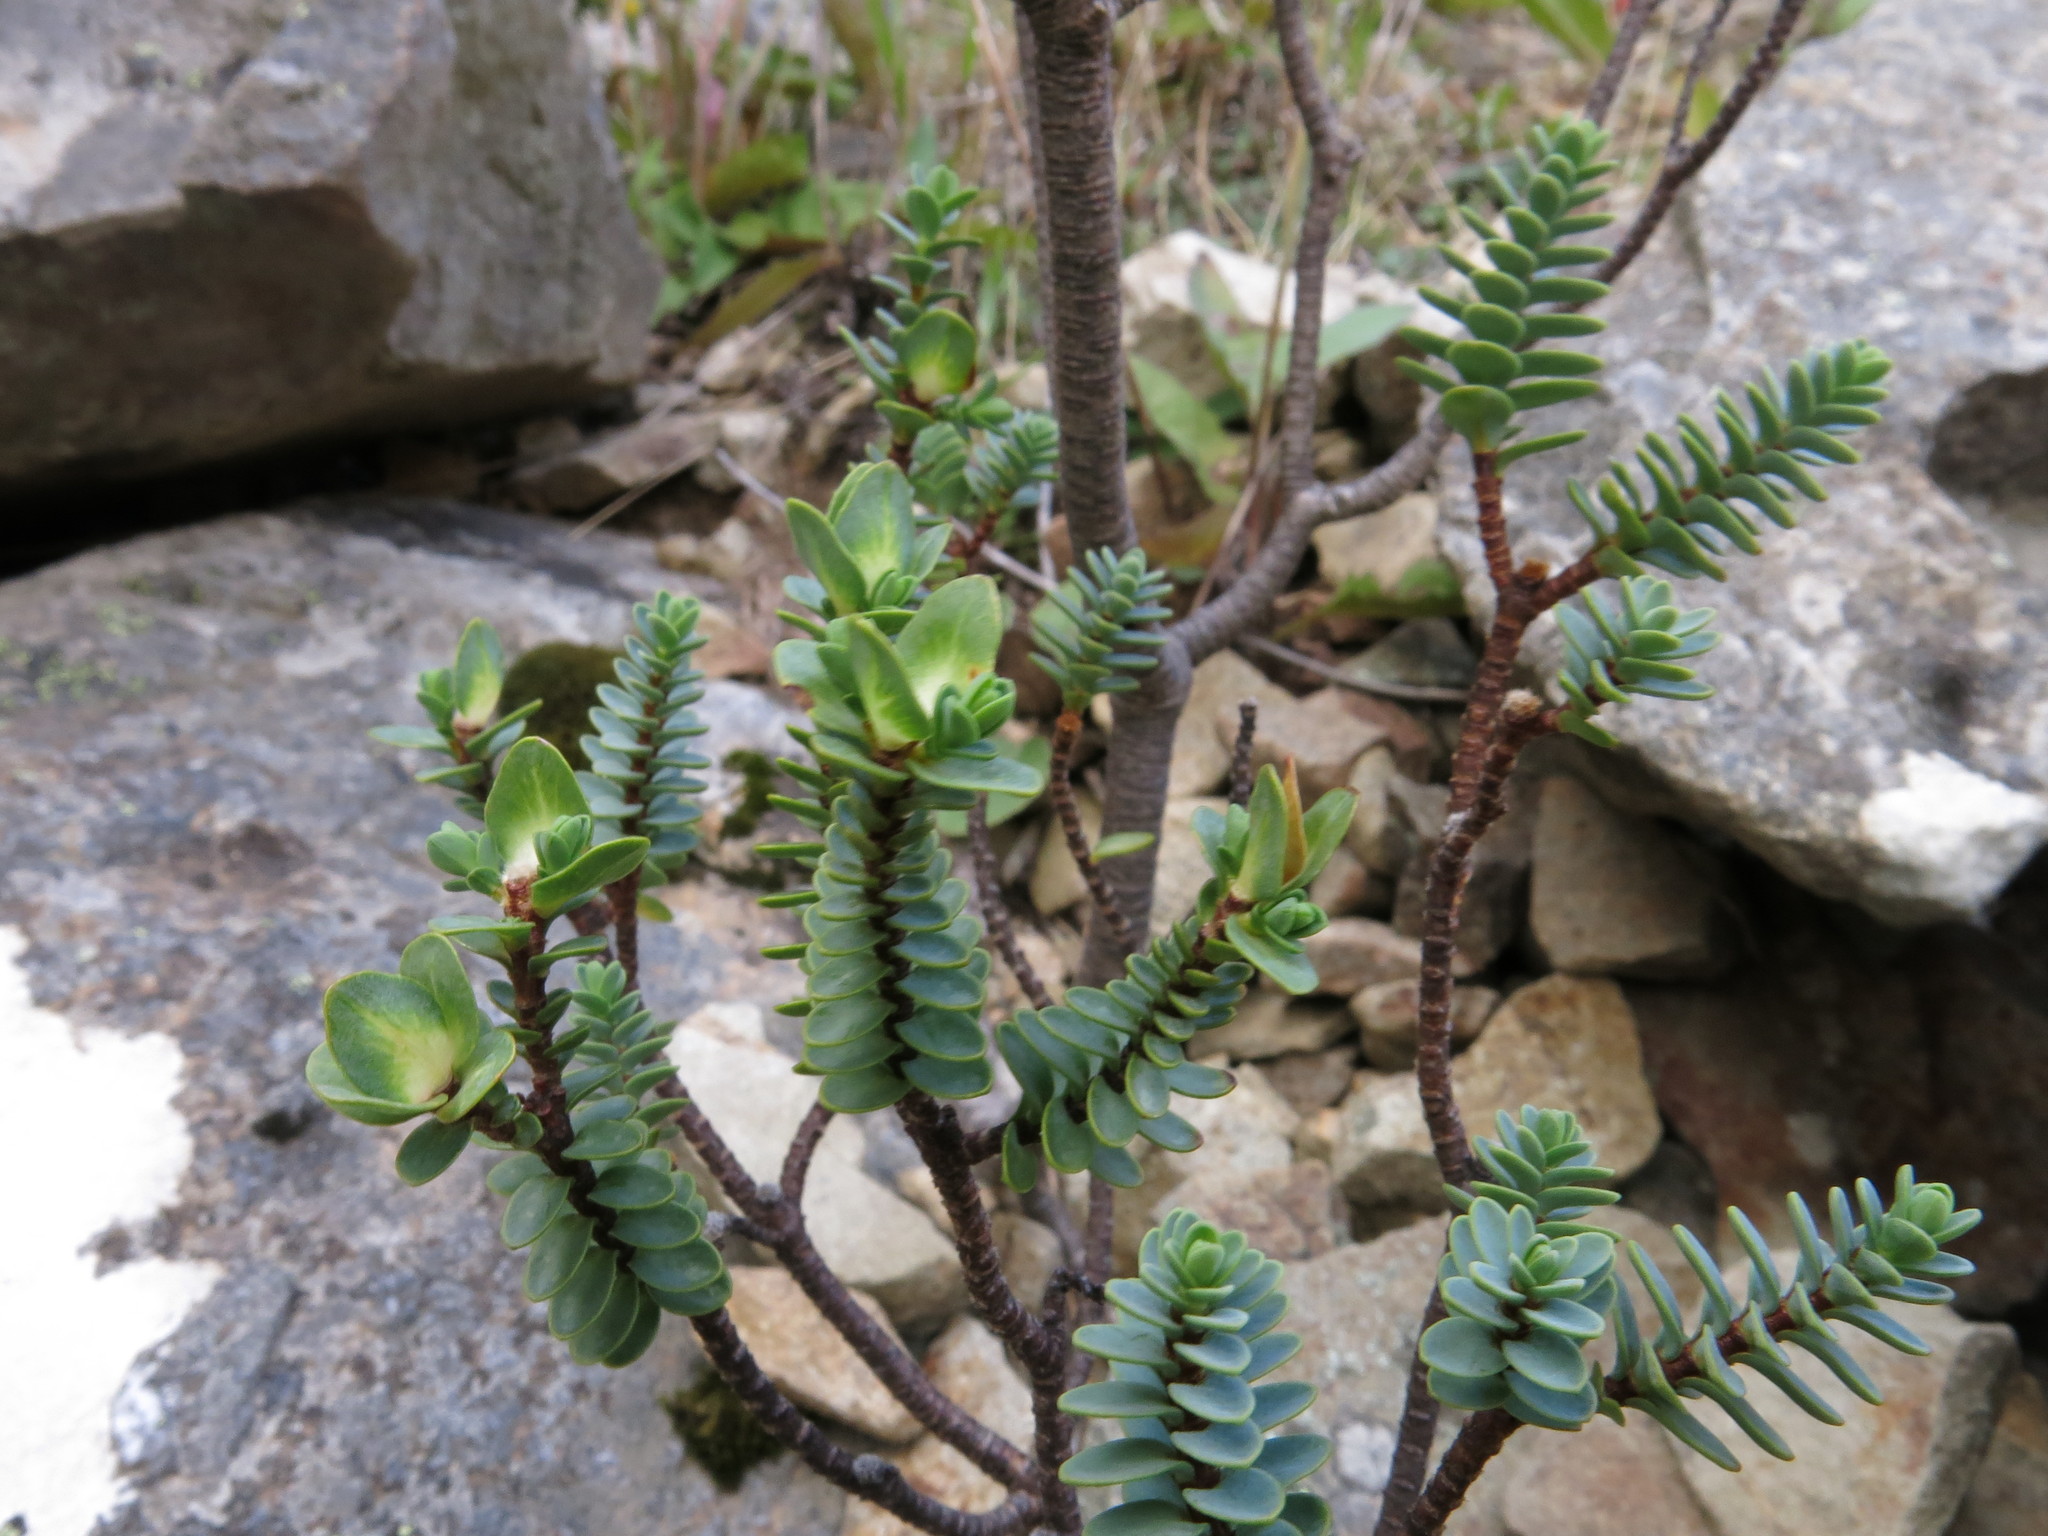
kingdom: Plantae
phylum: Tracheophyta
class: Magnoliopsida
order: Malvales
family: Thymelaeaceae
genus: Pimelea
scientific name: Pimelea traversii
